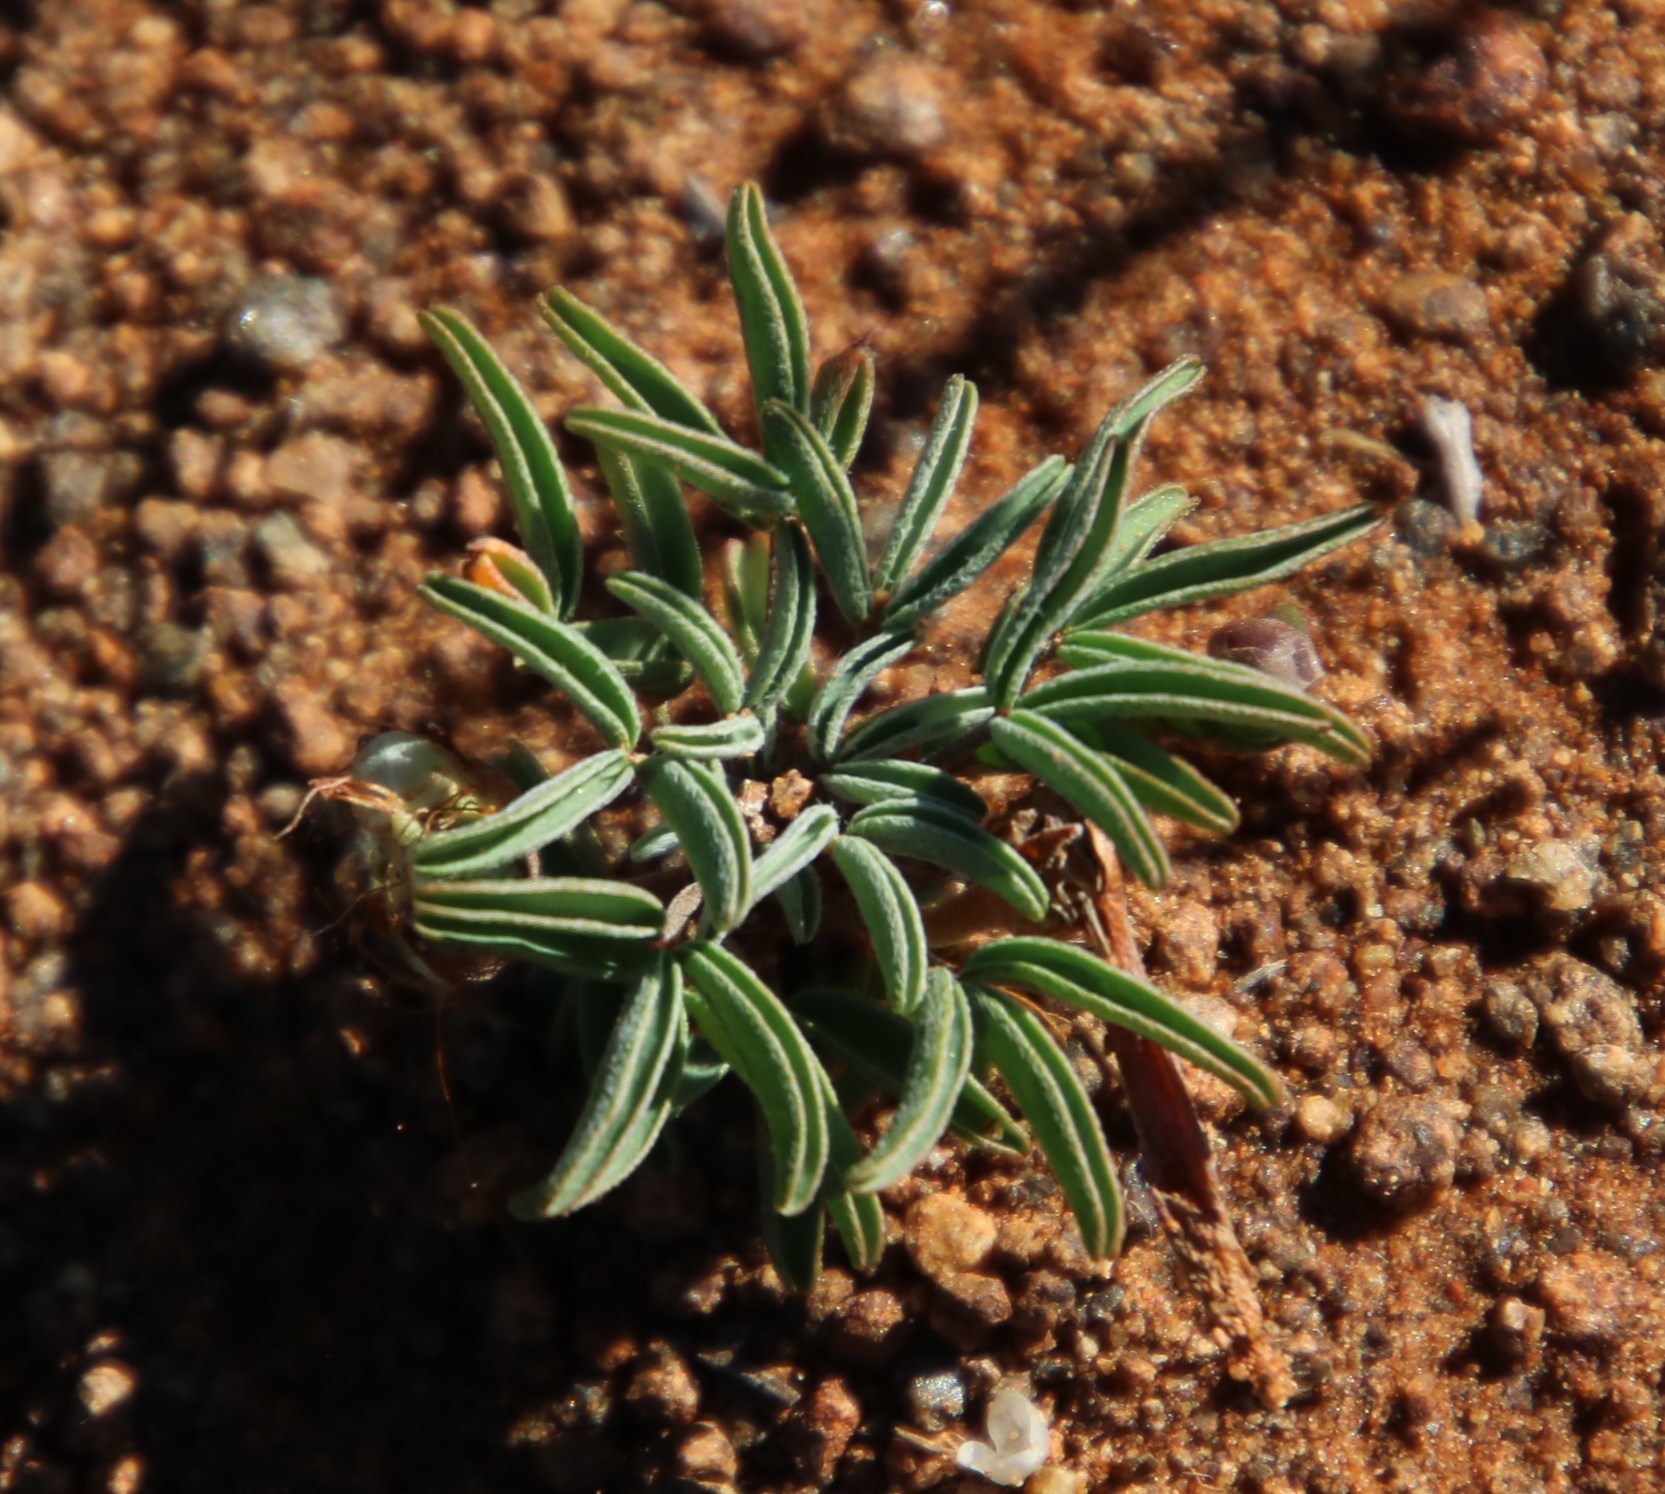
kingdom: Plantae
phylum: Tracheophyta
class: Magnoliopsida
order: Oxalidales
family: Oxalidaceae
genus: Oxalis
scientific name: Oxalis primuloides
